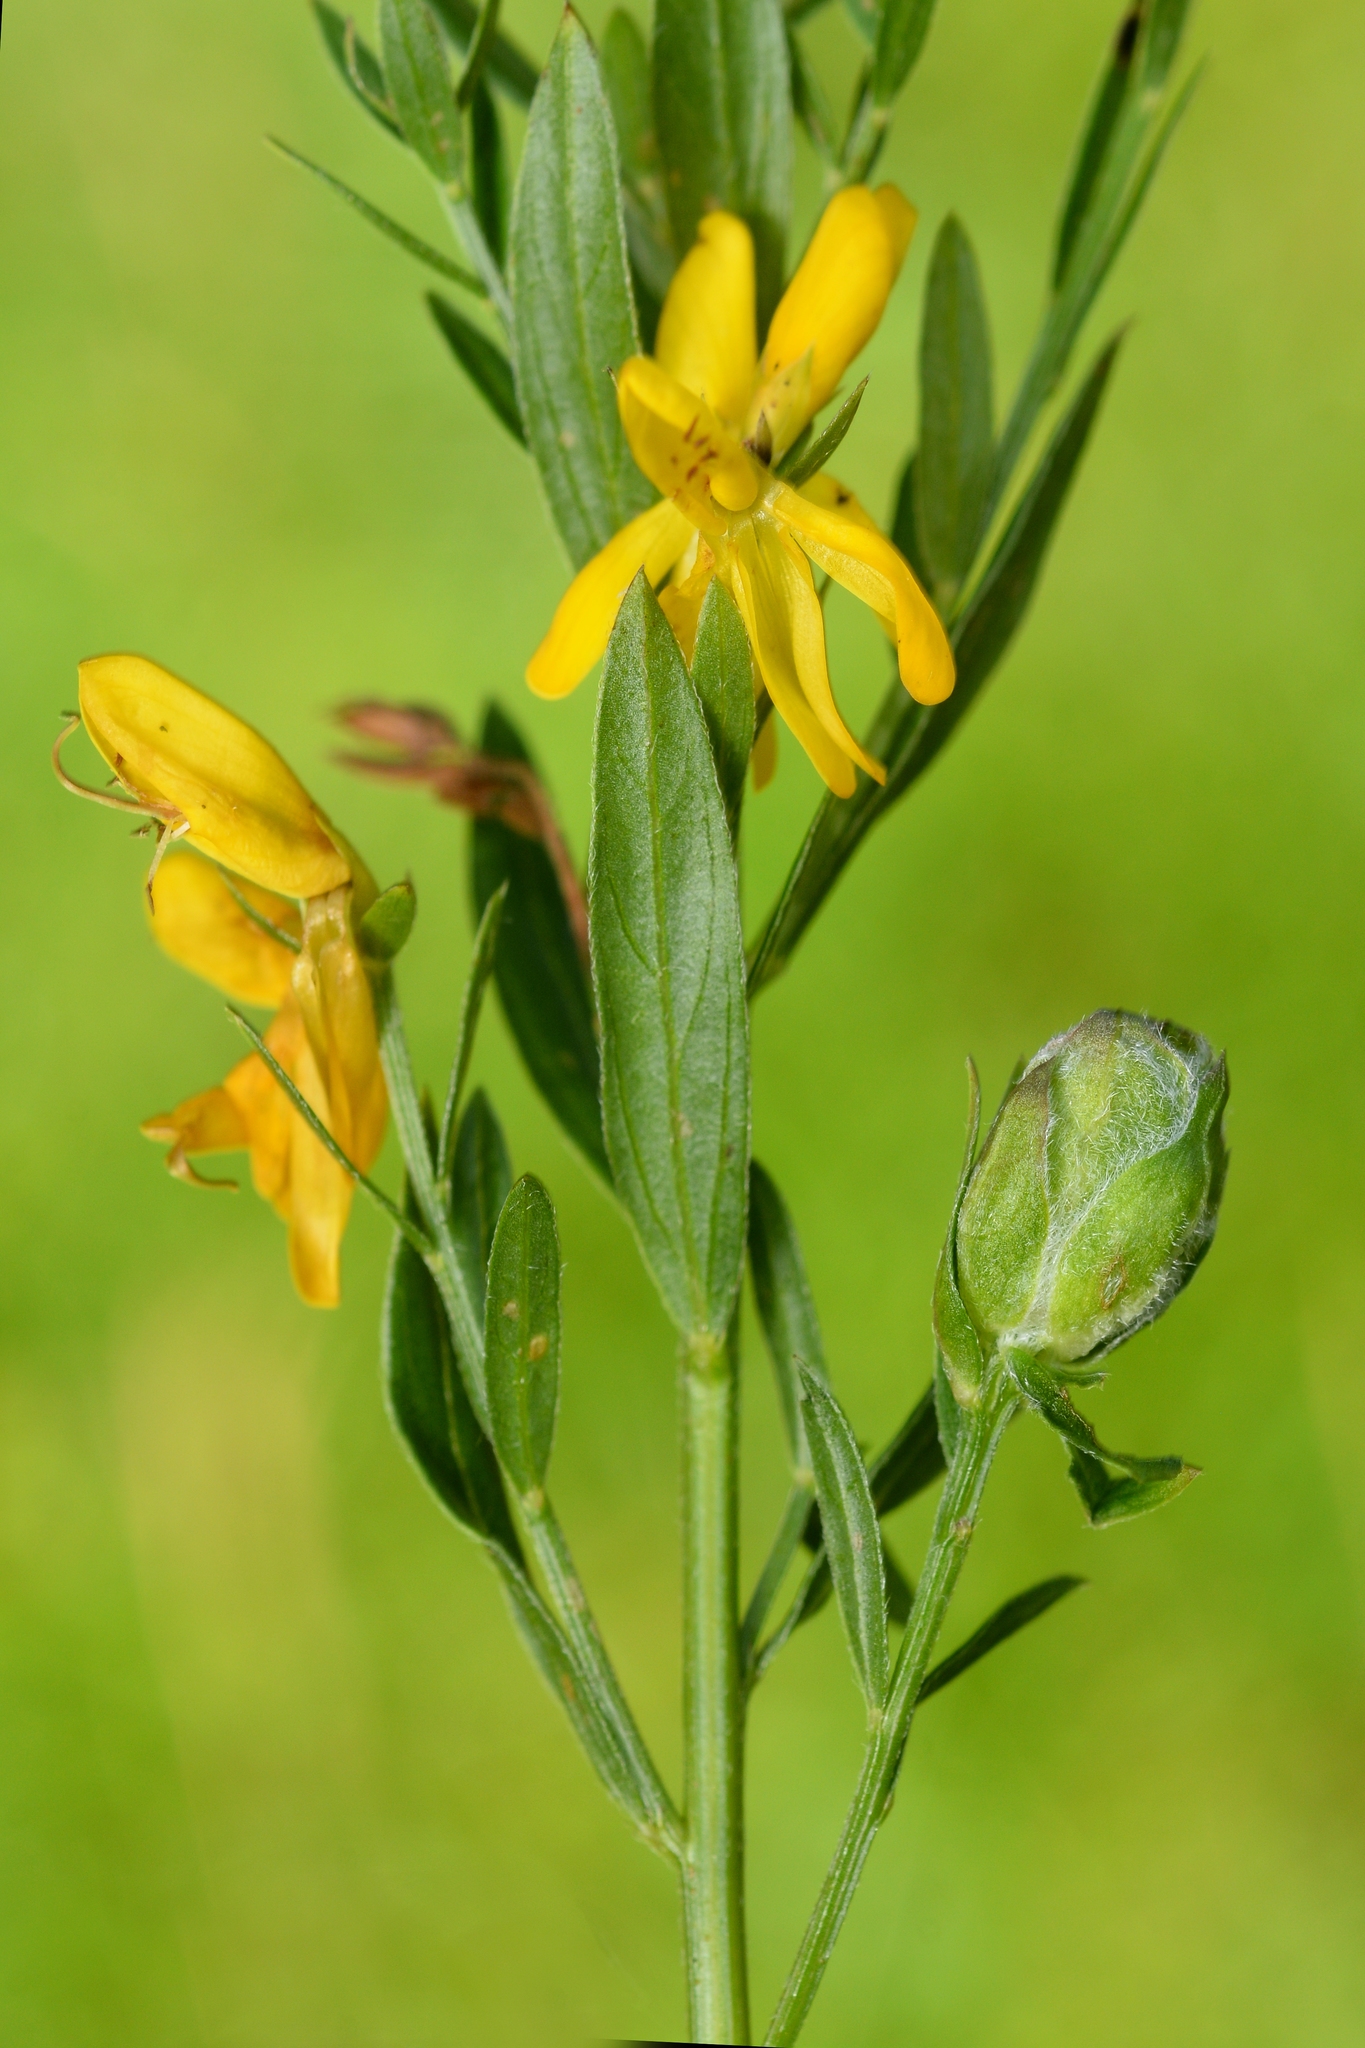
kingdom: Animalia
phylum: Arthropoda
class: Insecta
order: Diptera
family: Cecidomyiidae
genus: Jaapiella
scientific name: Jaapiella genisticola
